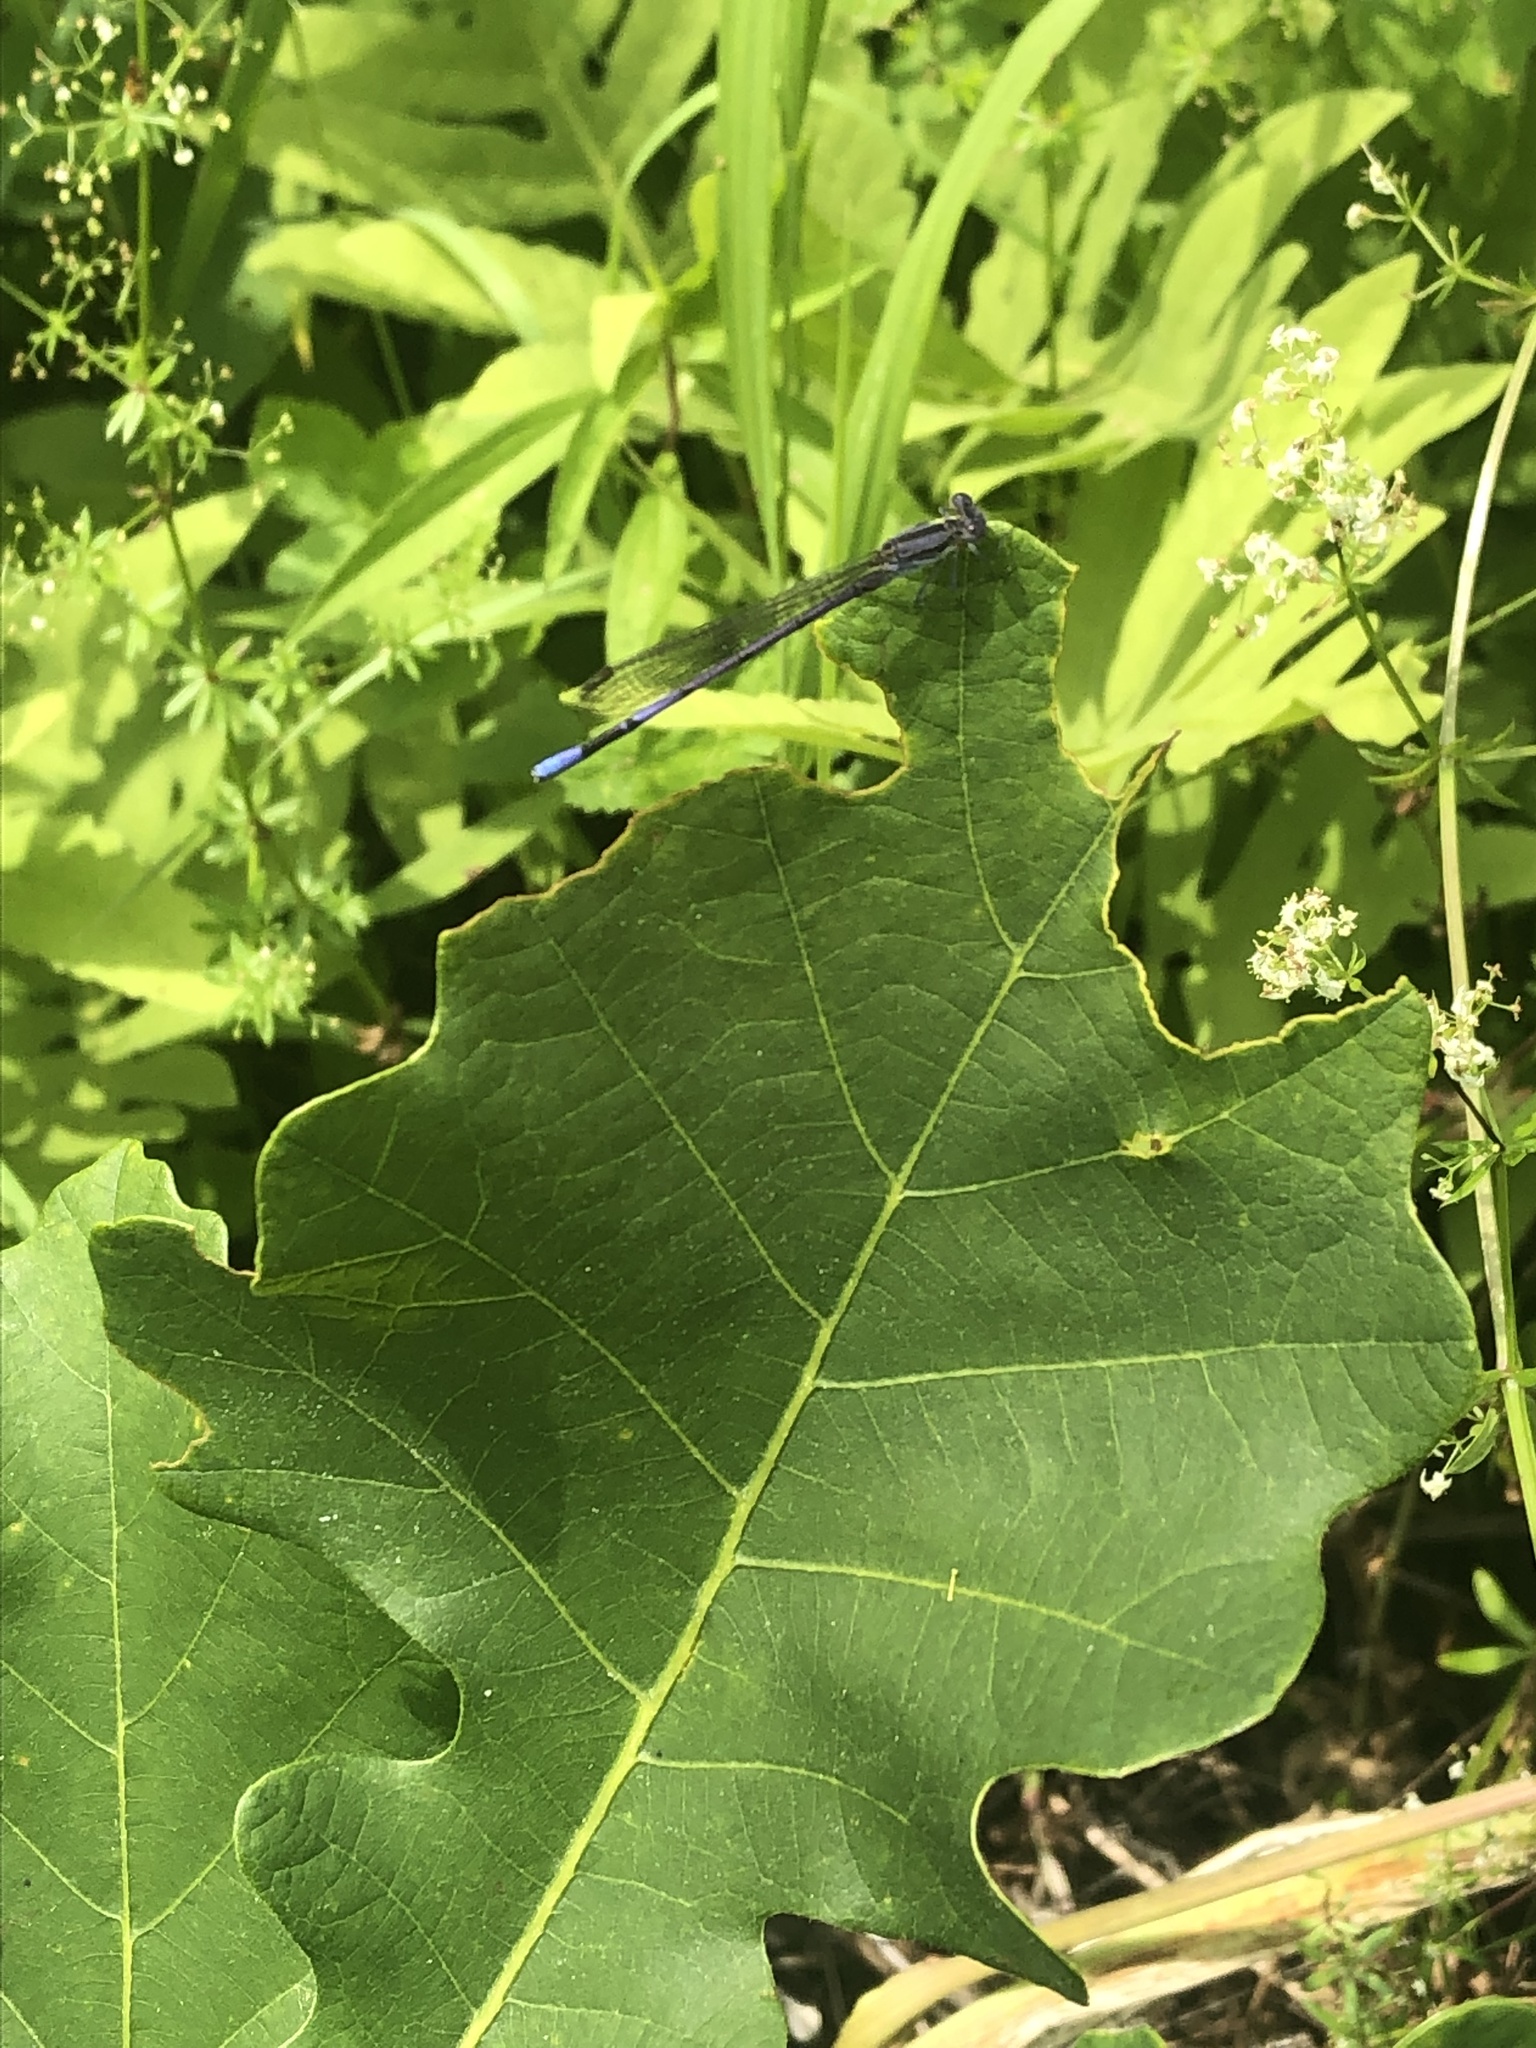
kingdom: Animalia
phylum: Arthropoda
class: Insecta
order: Odonata
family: Coenagrionidae
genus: Argia
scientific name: Argia fumipennis
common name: Variable dancer
